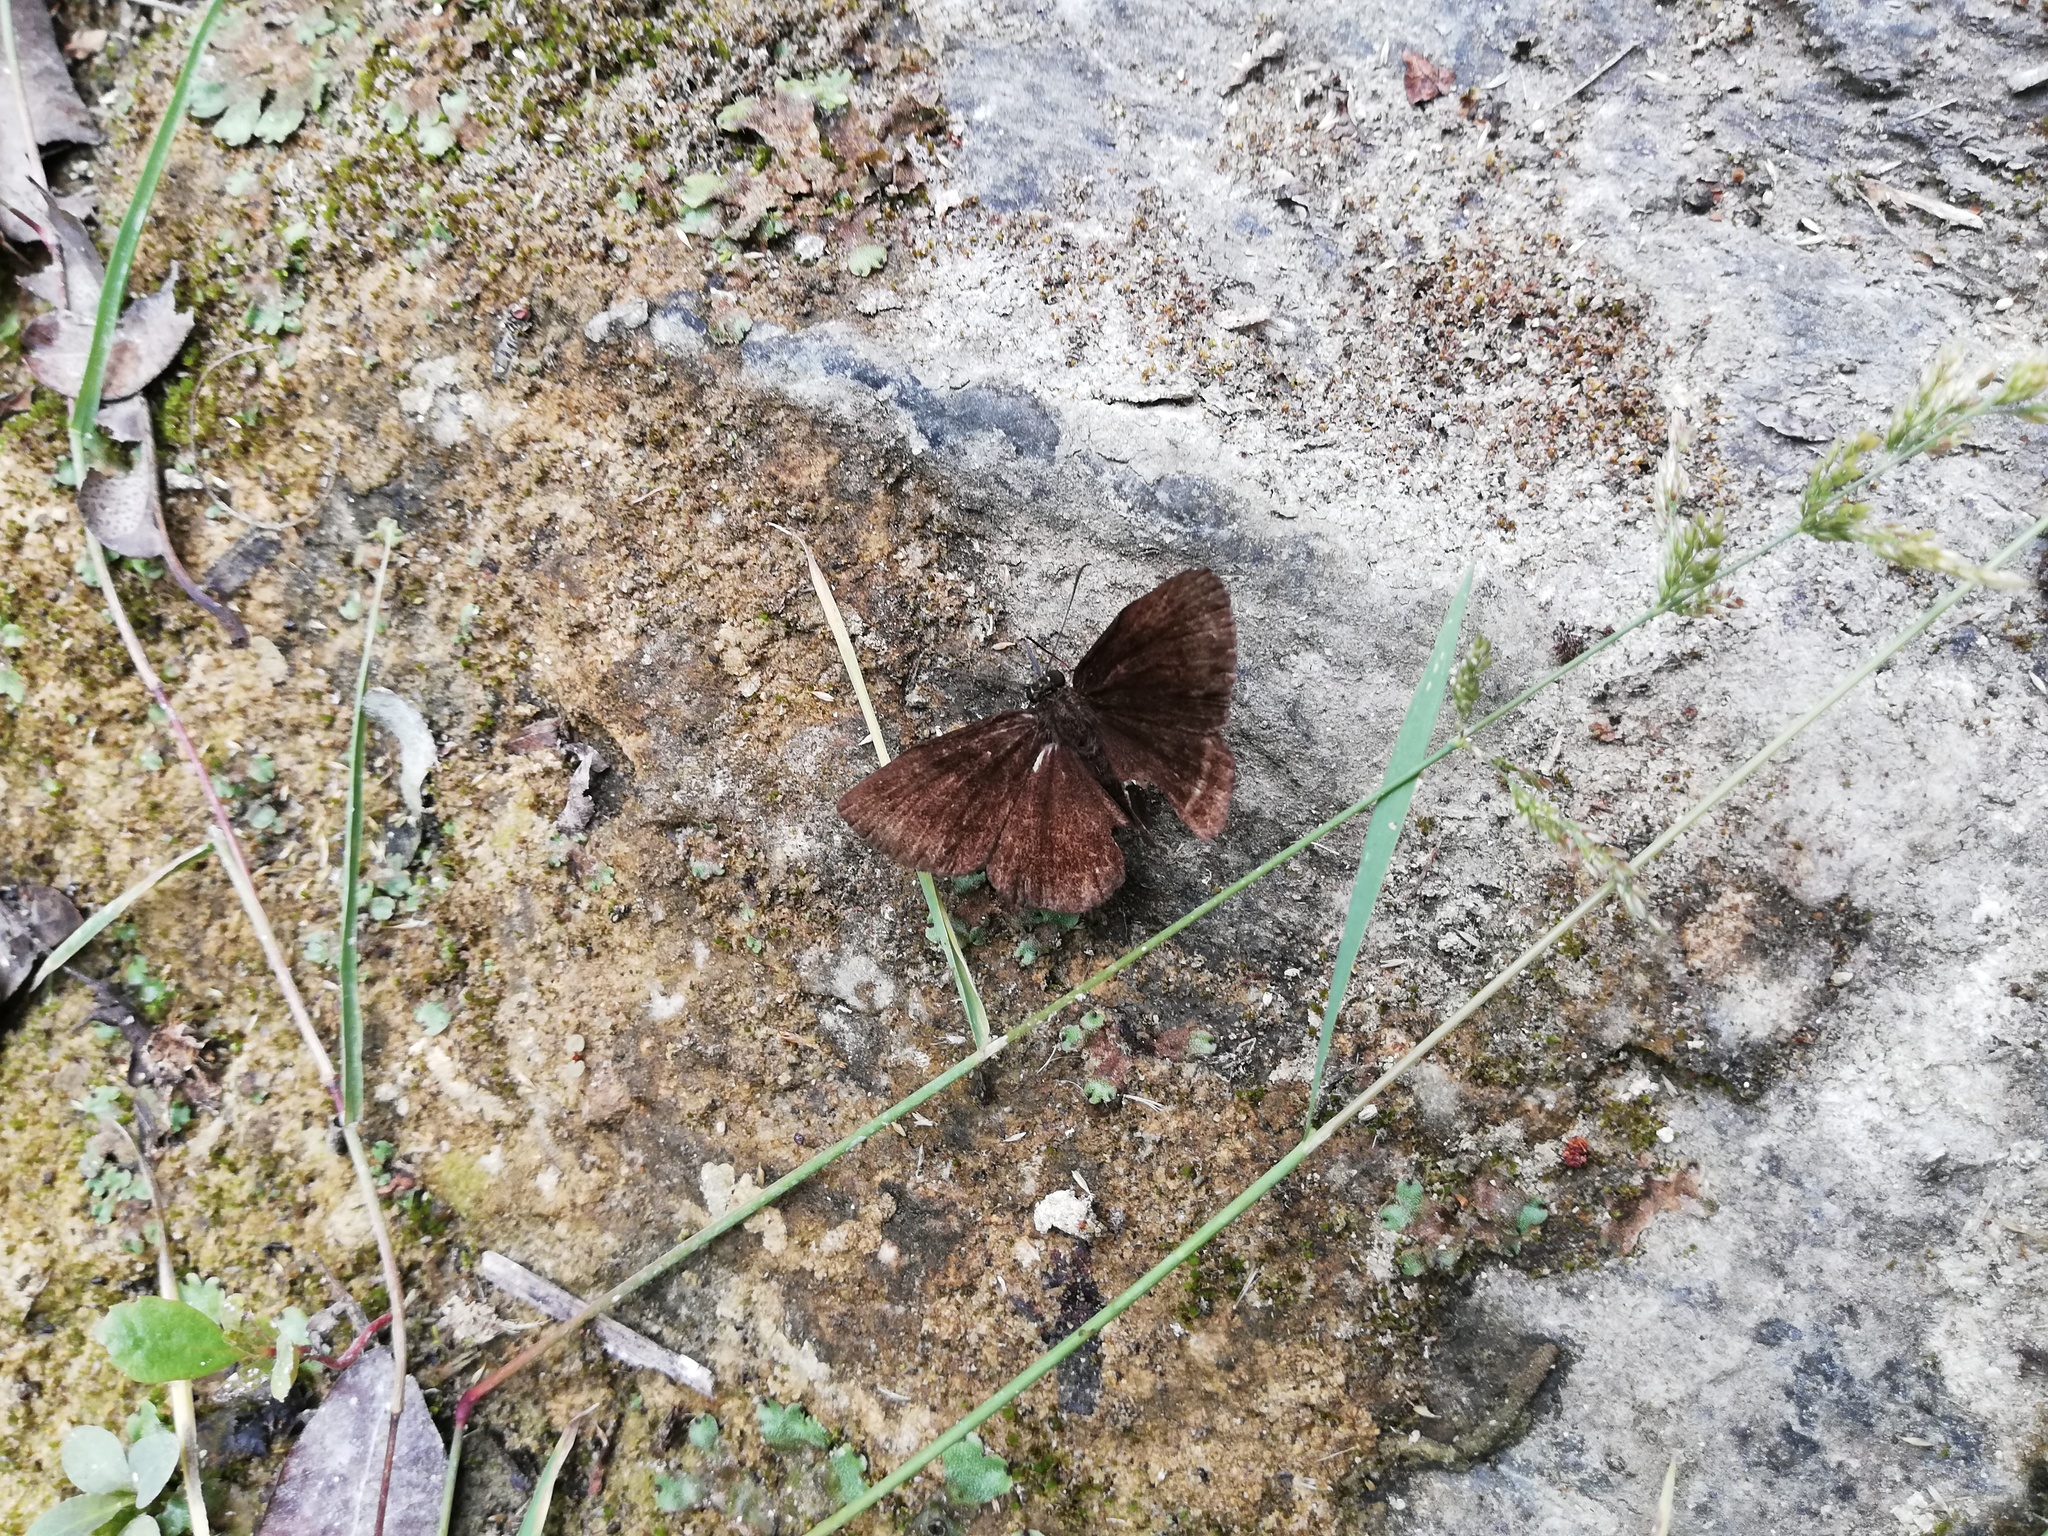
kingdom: Animalia
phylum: Arthropoda
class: Insecta
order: Lepidoptera
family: Hesperiidae
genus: Staphylus
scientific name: Staphylus ceos
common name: Golden-headed scallopwing
